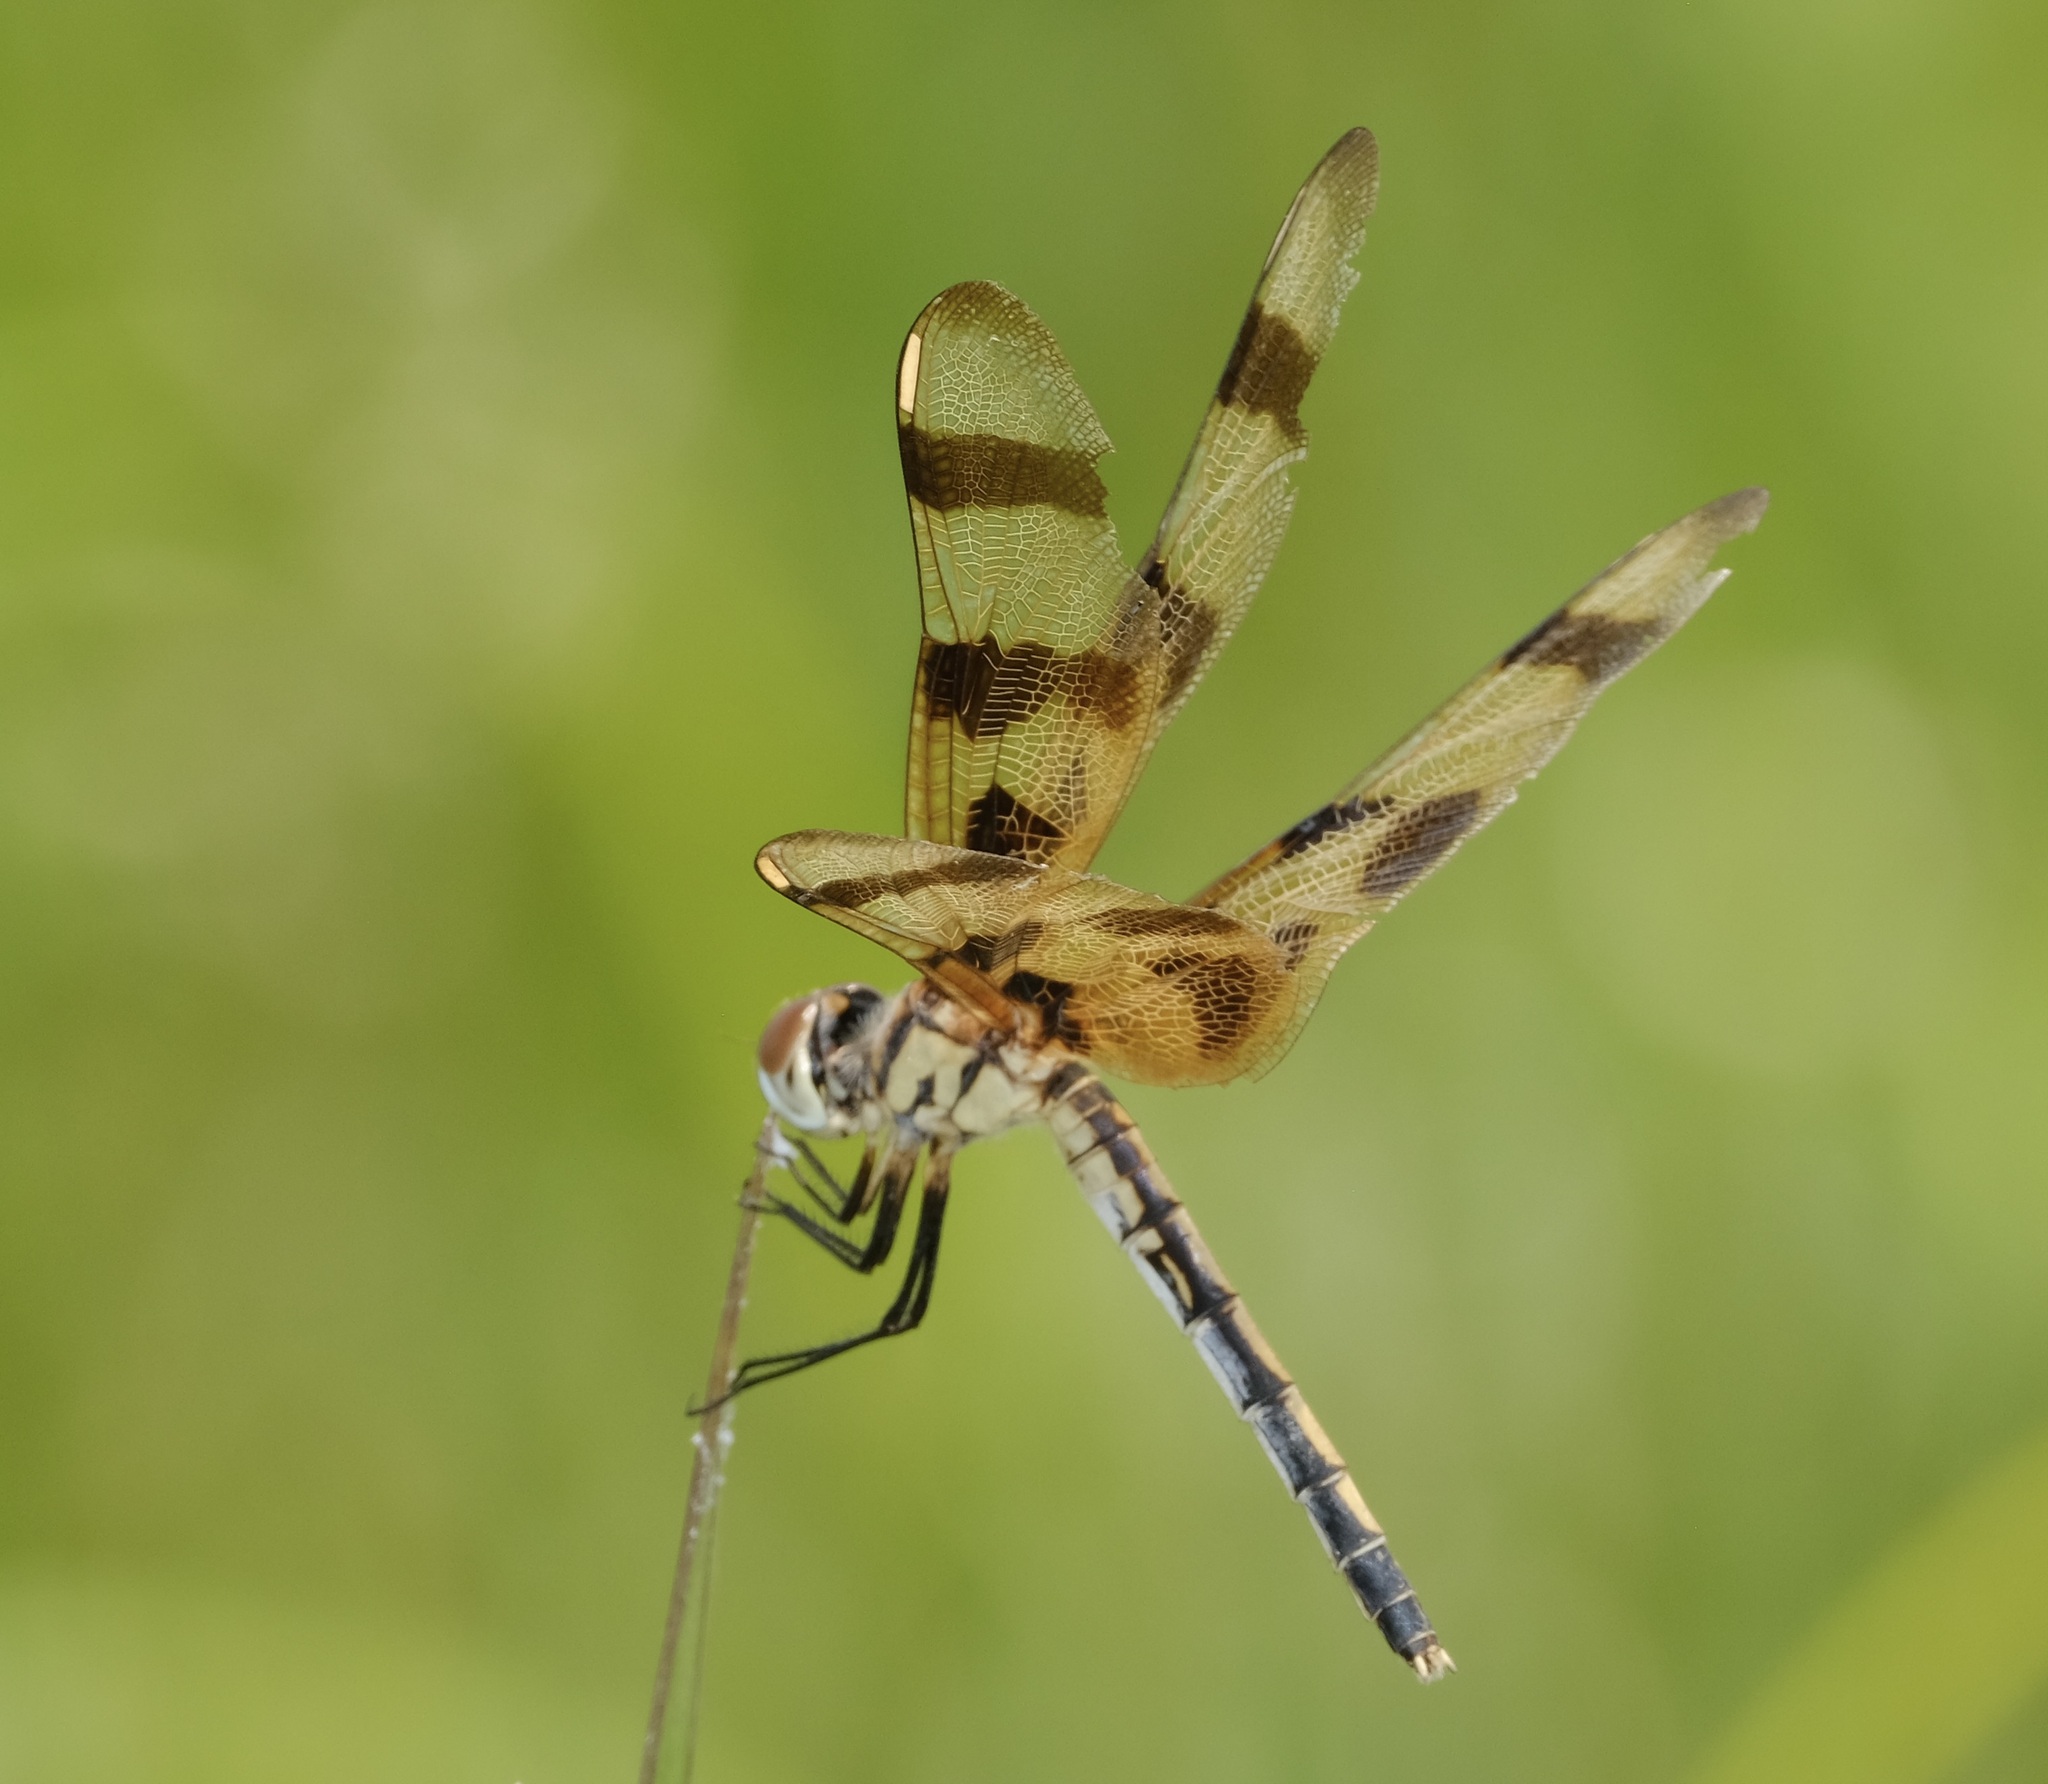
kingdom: Animalia
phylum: Arthropoda
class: Insecta
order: Odonata
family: Libellulidae
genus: Celithemis
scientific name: Celithemis eponina
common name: Halloween pennant
